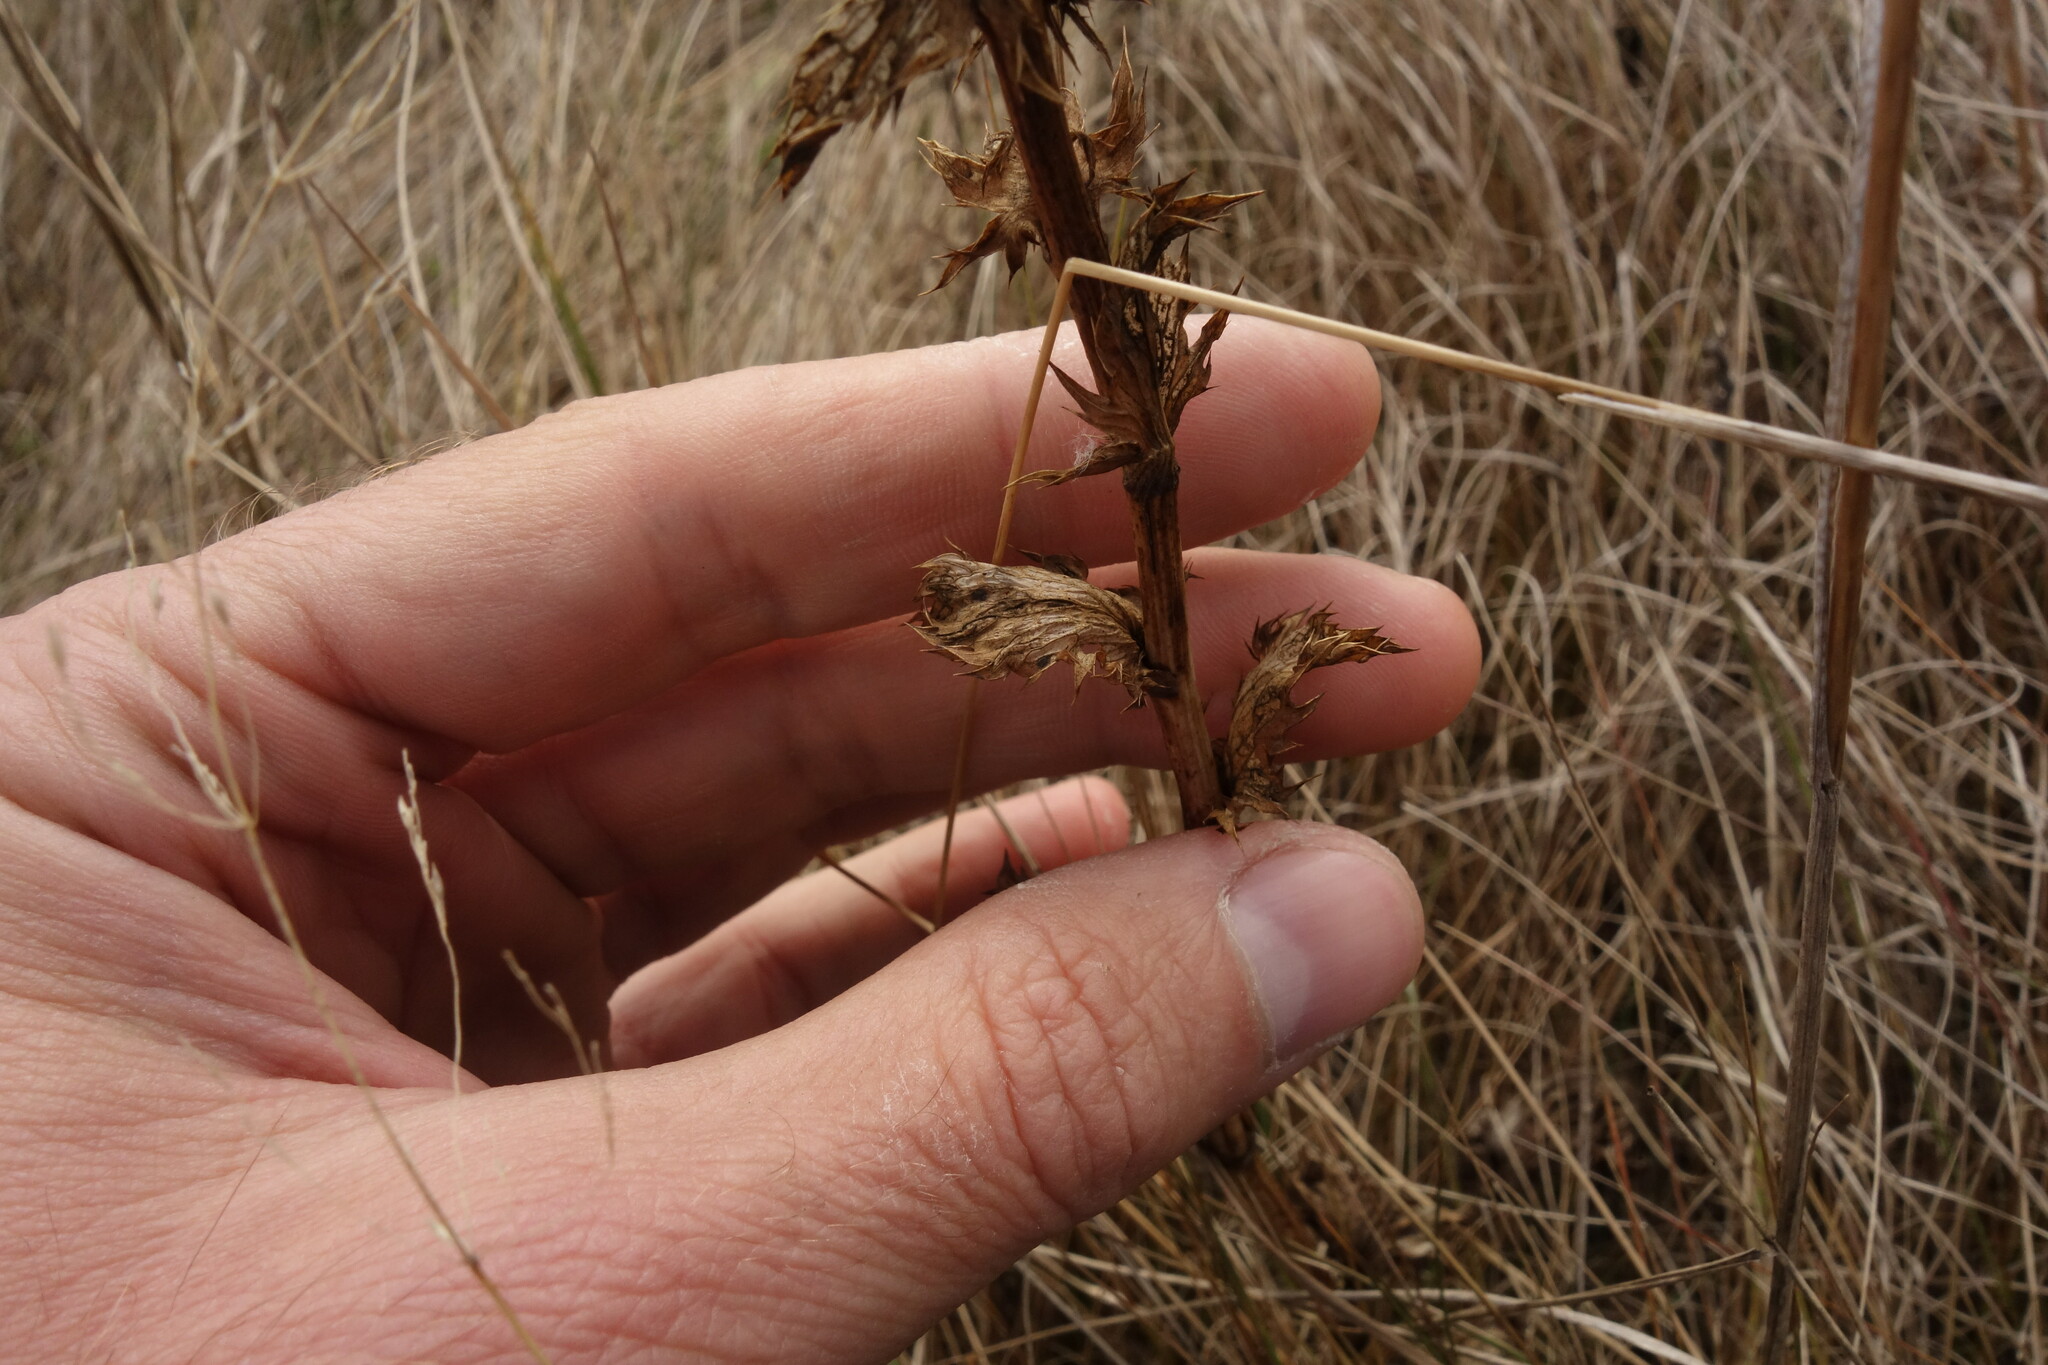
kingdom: Plantae
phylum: Tracheophyta
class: Magnoliopsida
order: Apiales
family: Apiaceae
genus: Eryngium
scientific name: Eryngium planum
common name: Blue eryngo
